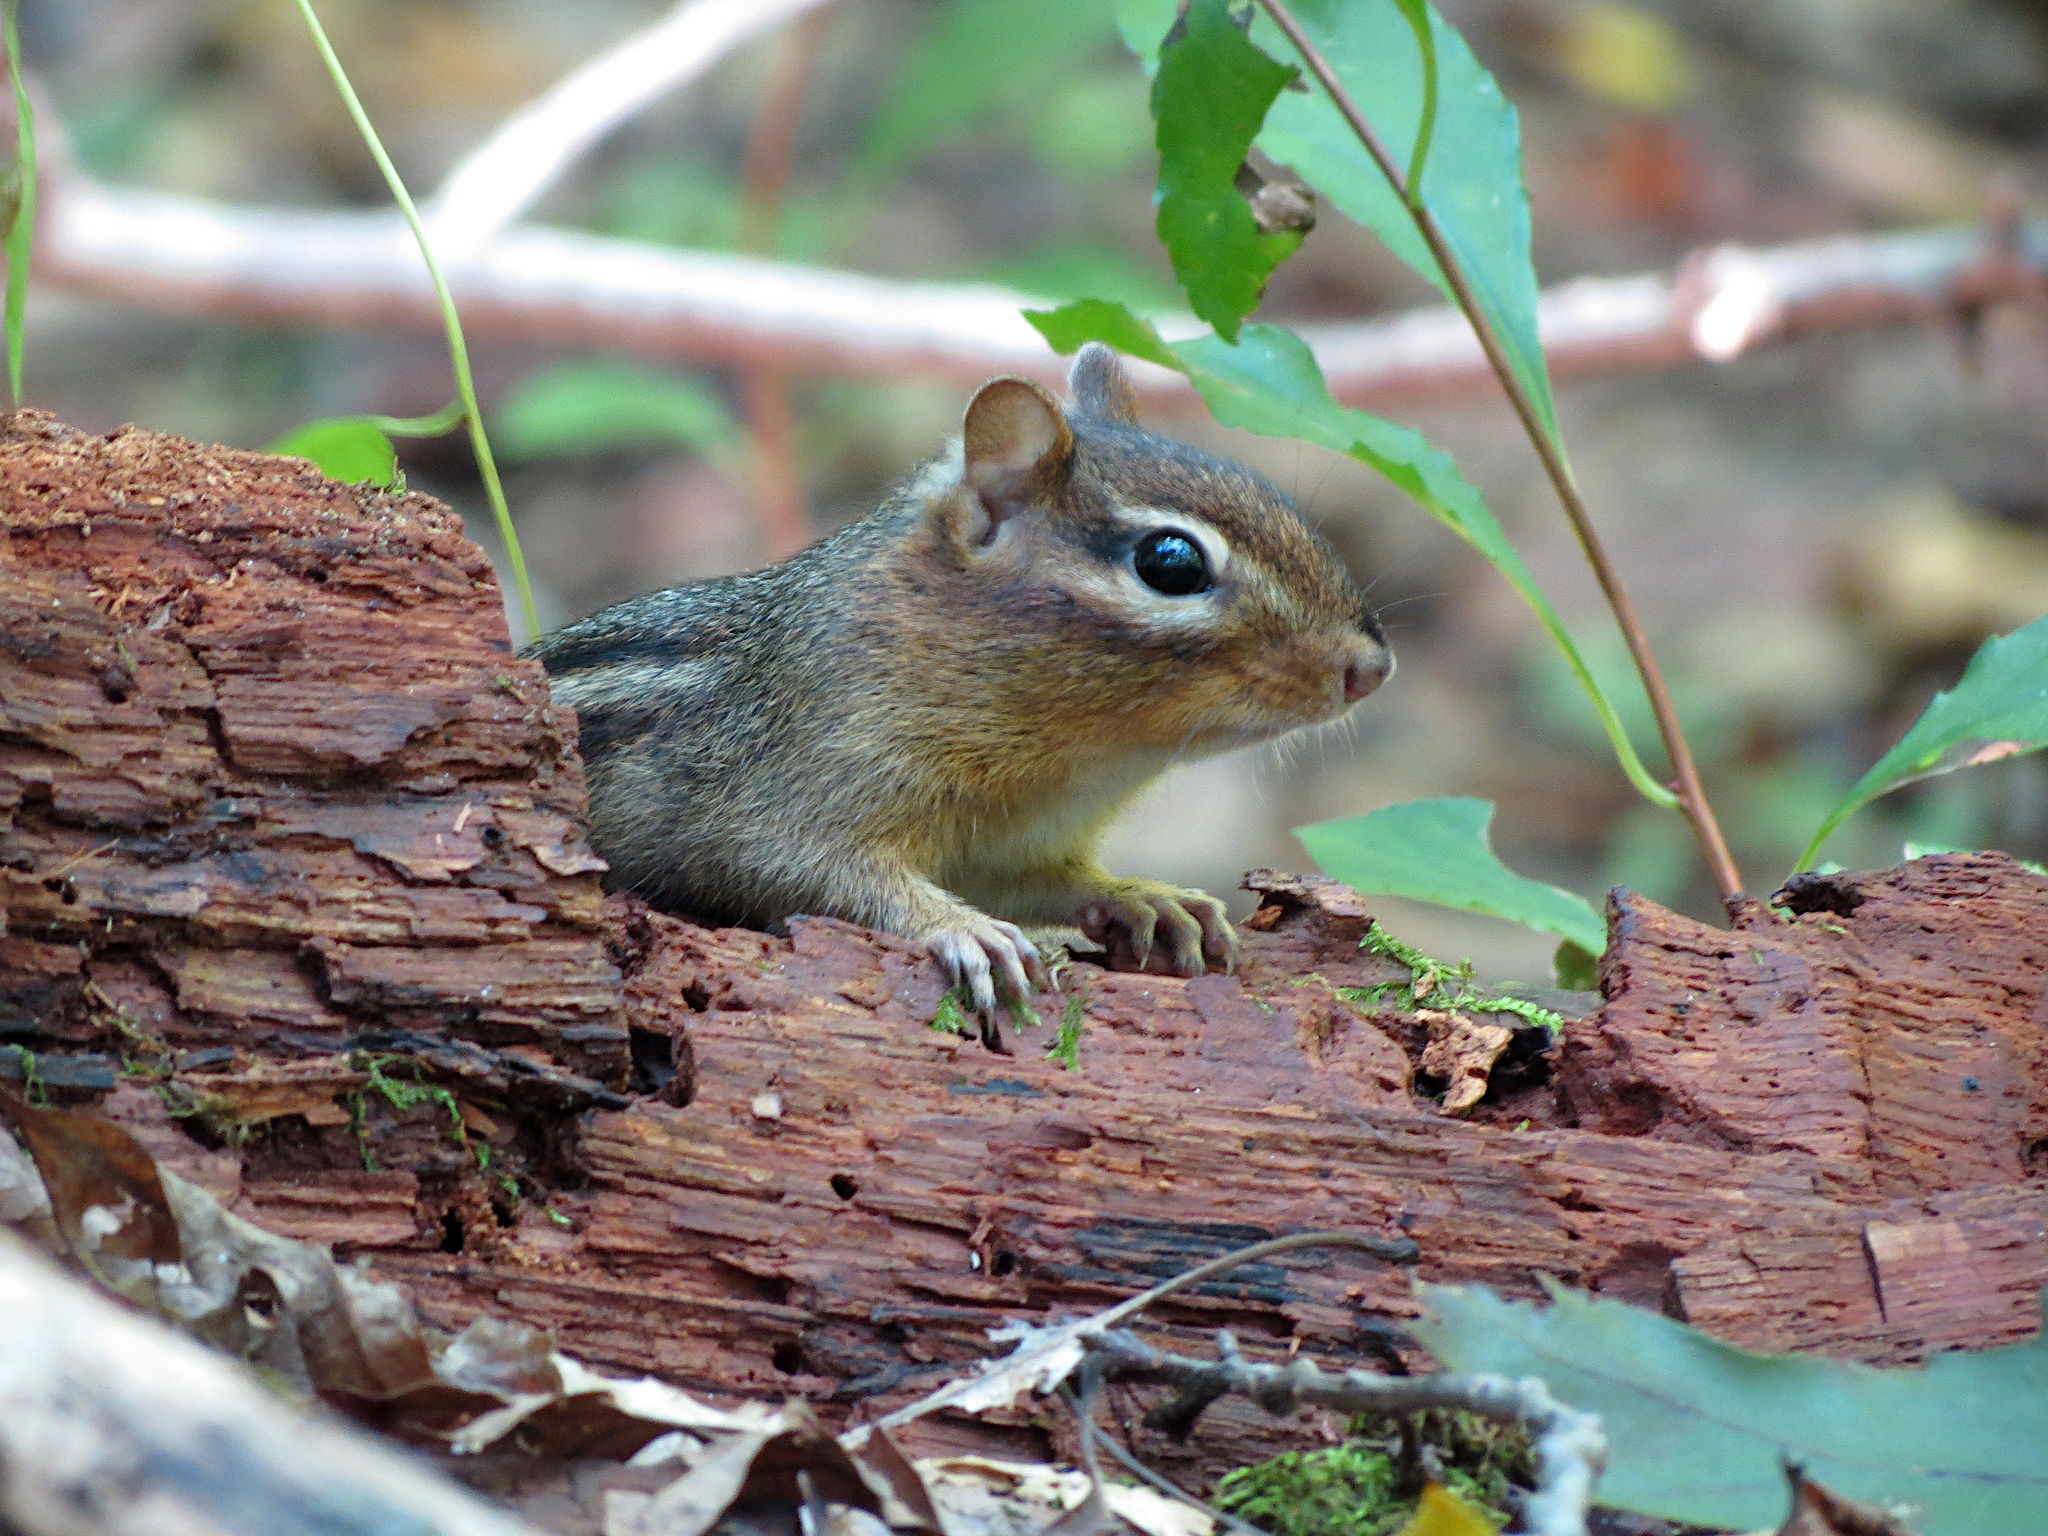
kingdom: Animalia
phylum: Chordata
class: Mammalia
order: Rodentia
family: Sciuridae
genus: Tamias
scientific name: Tamias striatus
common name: Eastern chipmunk
